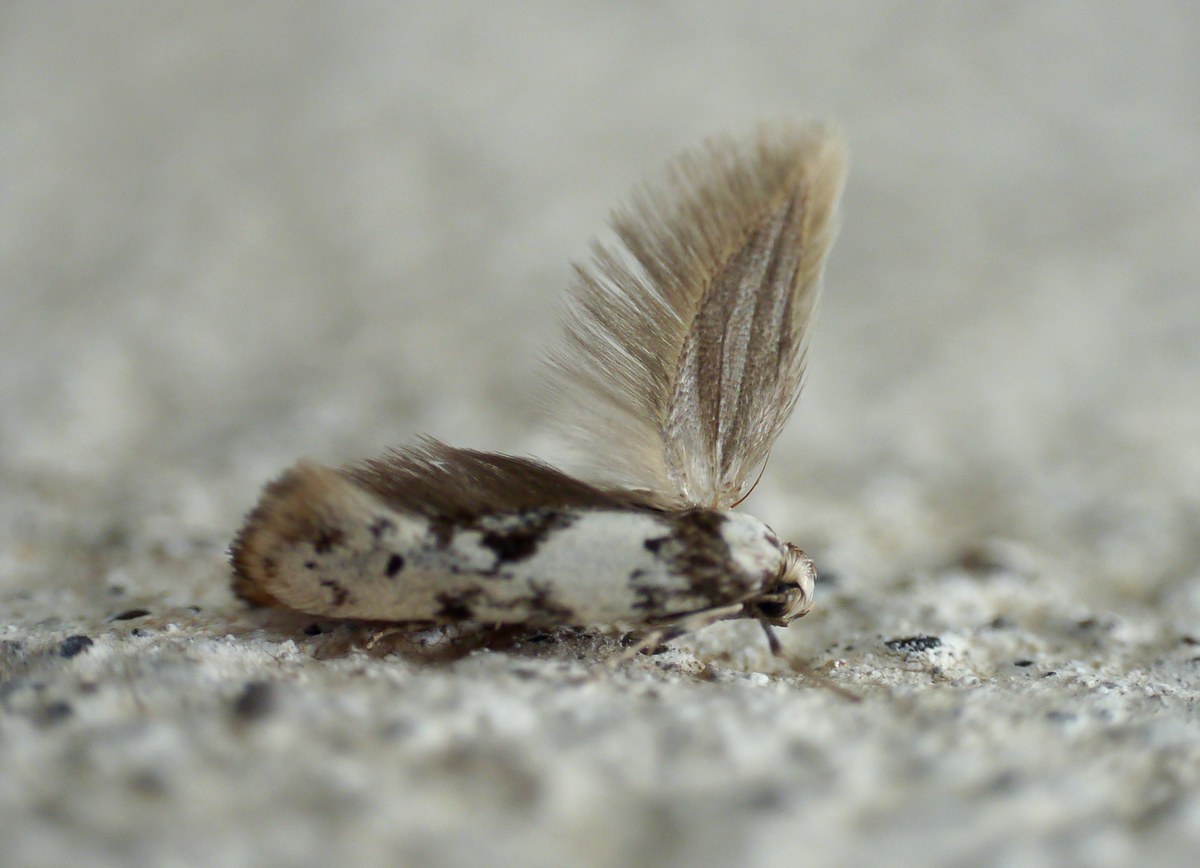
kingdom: Animalia
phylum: Arthropoda
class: Insecta
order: Lepidoptera
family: Scythrididae
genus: Episcythris
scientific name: Episcythris triangulella
